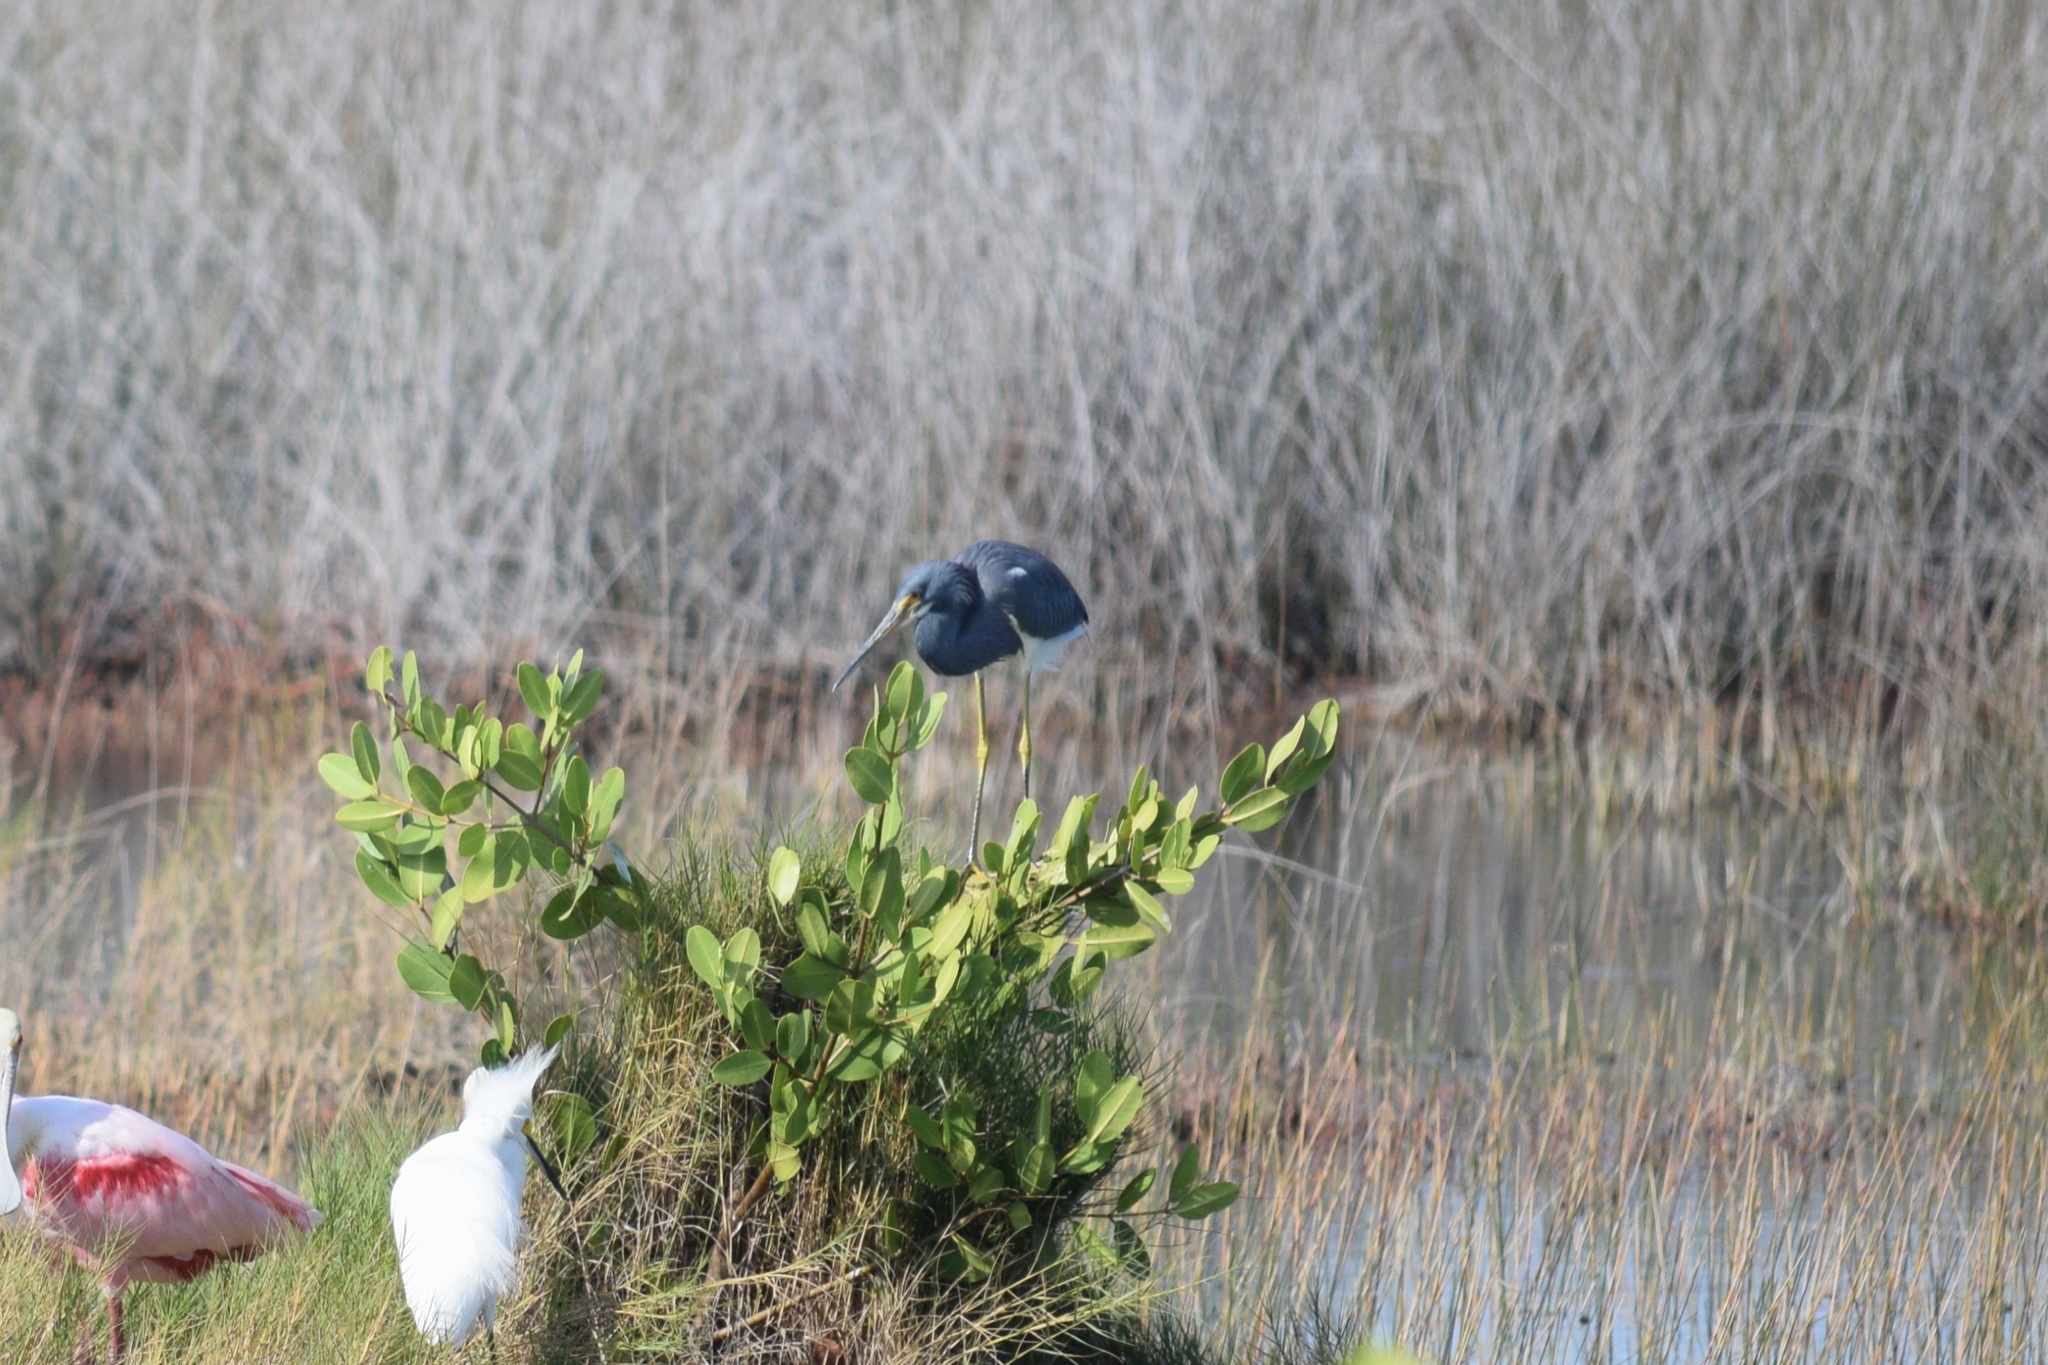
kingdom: Animalia
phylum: Chordata
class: Aves
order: Pelecaniformes
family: Ardeidae
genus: Egretta
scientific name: Egretta tricolor
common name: Tricolored heron
